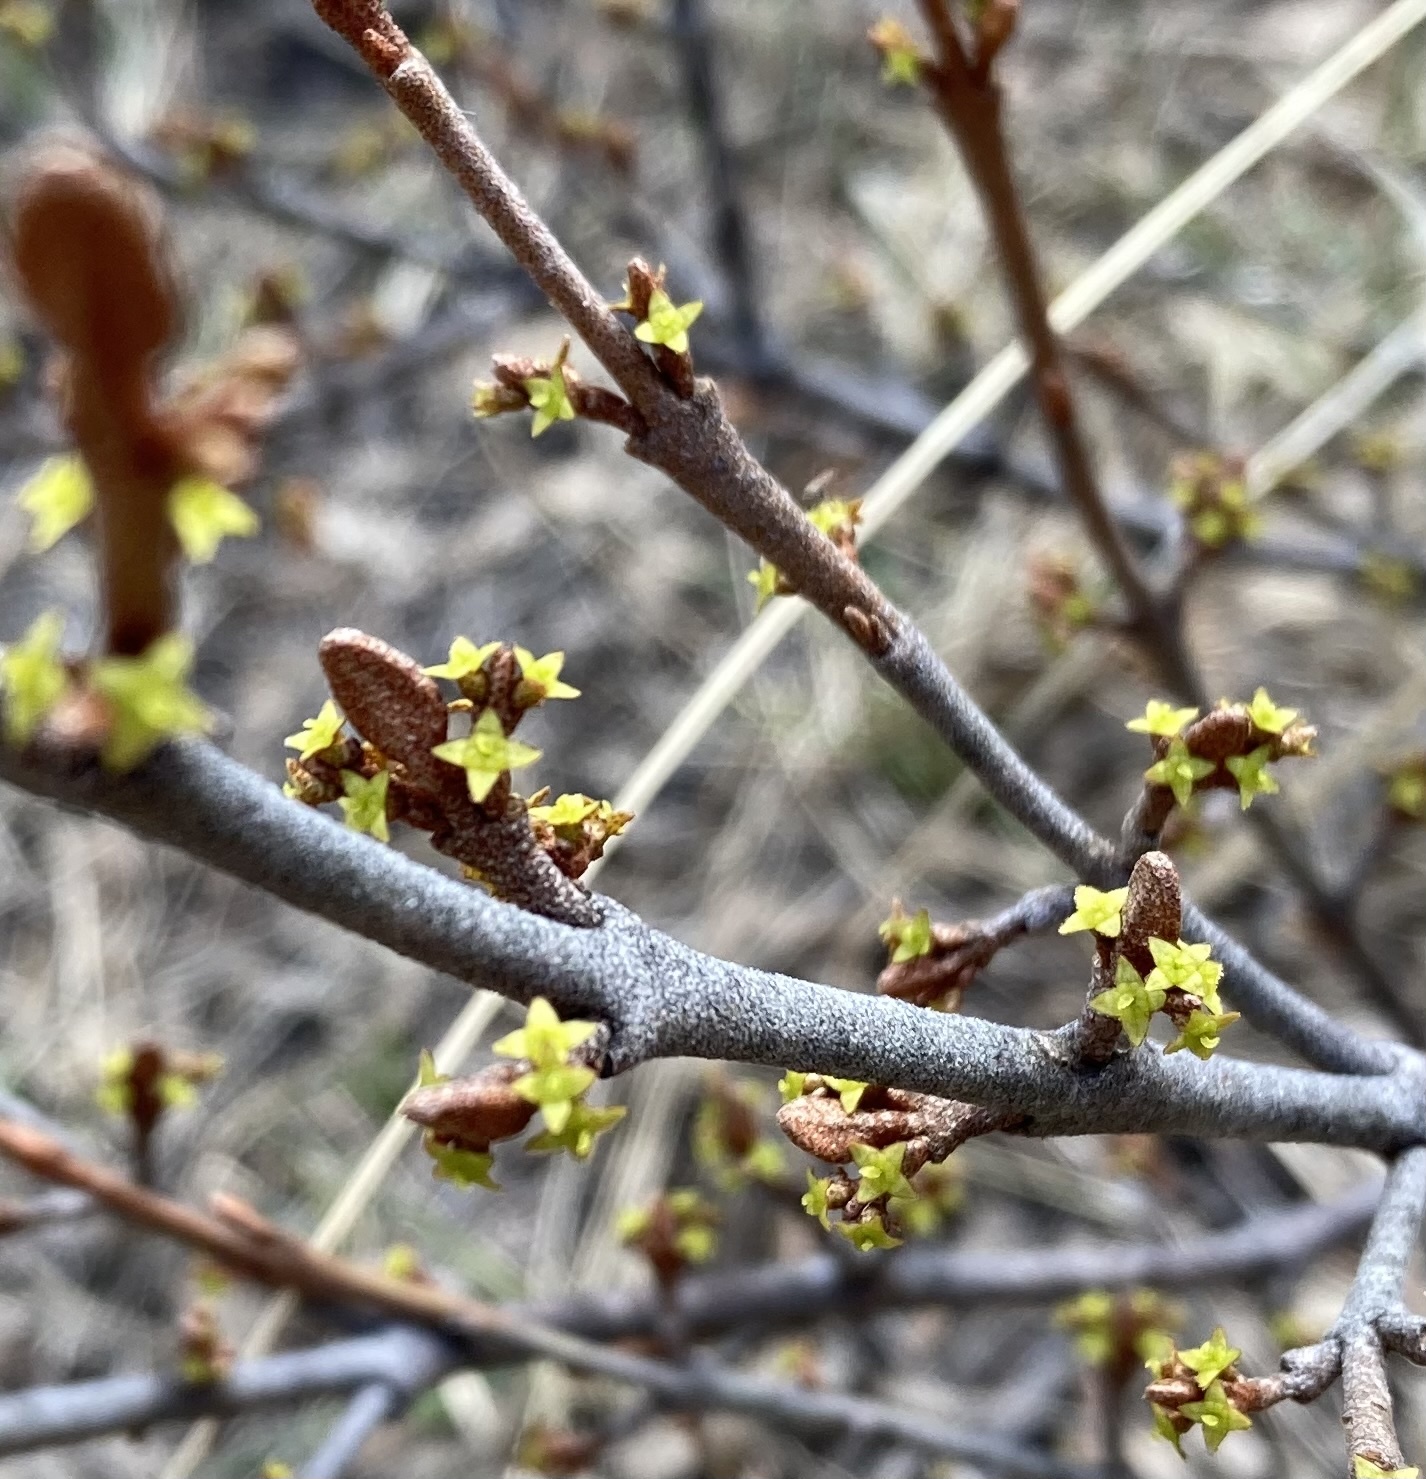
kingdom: Plantae
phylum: Tracheophyta
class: Magnoliopsida
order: Rosales
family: Elaeagnaceae
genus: Shepherdia
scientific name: Shepherdia canadensis
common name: Soapberry
